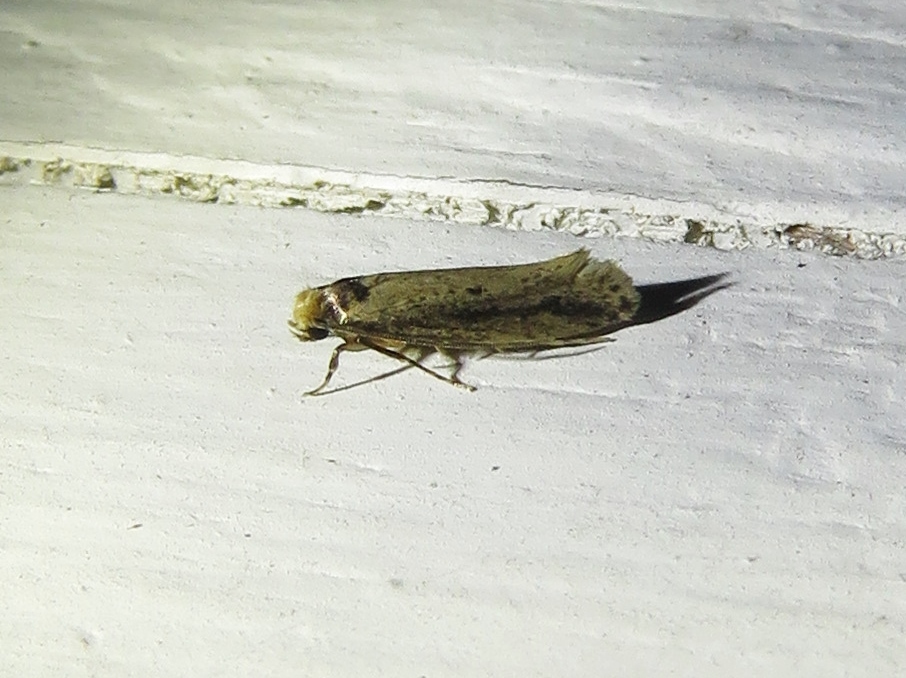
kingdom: Animalia
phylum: Arthropoda
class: Insecta
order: Lepidoptera
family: Tineidae
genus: Tinea
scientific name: Tinea apicimaculella
